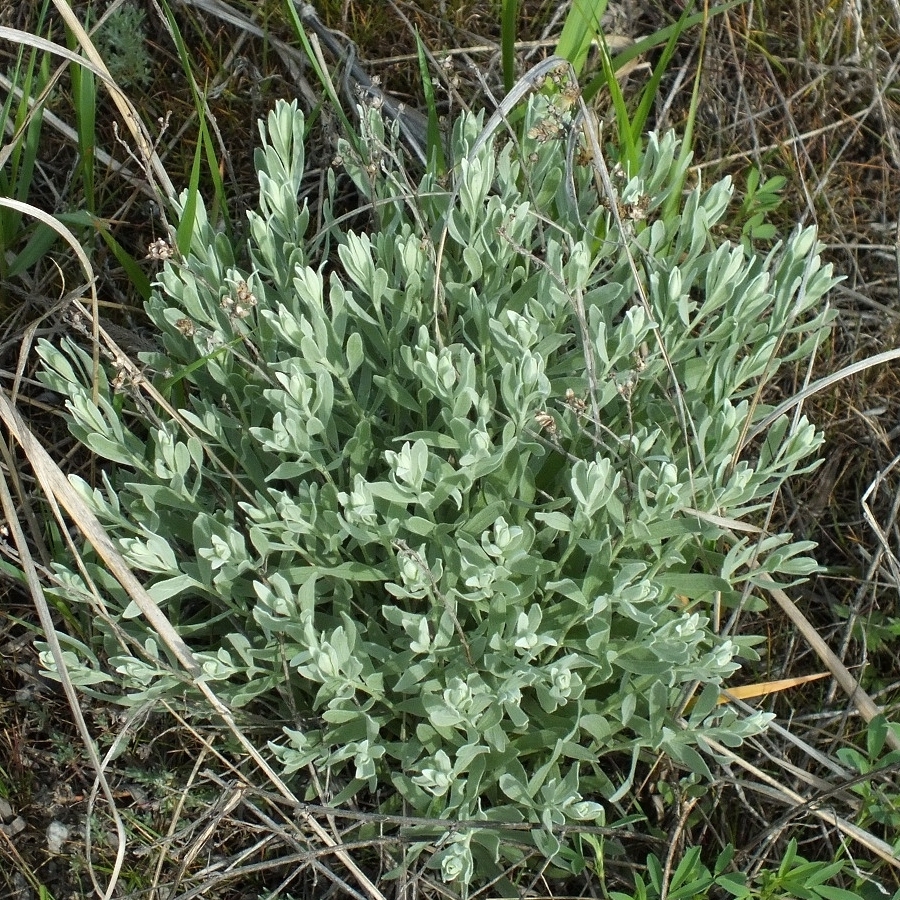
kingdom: Plantae
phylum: Tracheophyta
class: Magnoliopsida
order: Asterales
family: Asteraceae
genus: Galatella
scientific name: Galatella villosa
